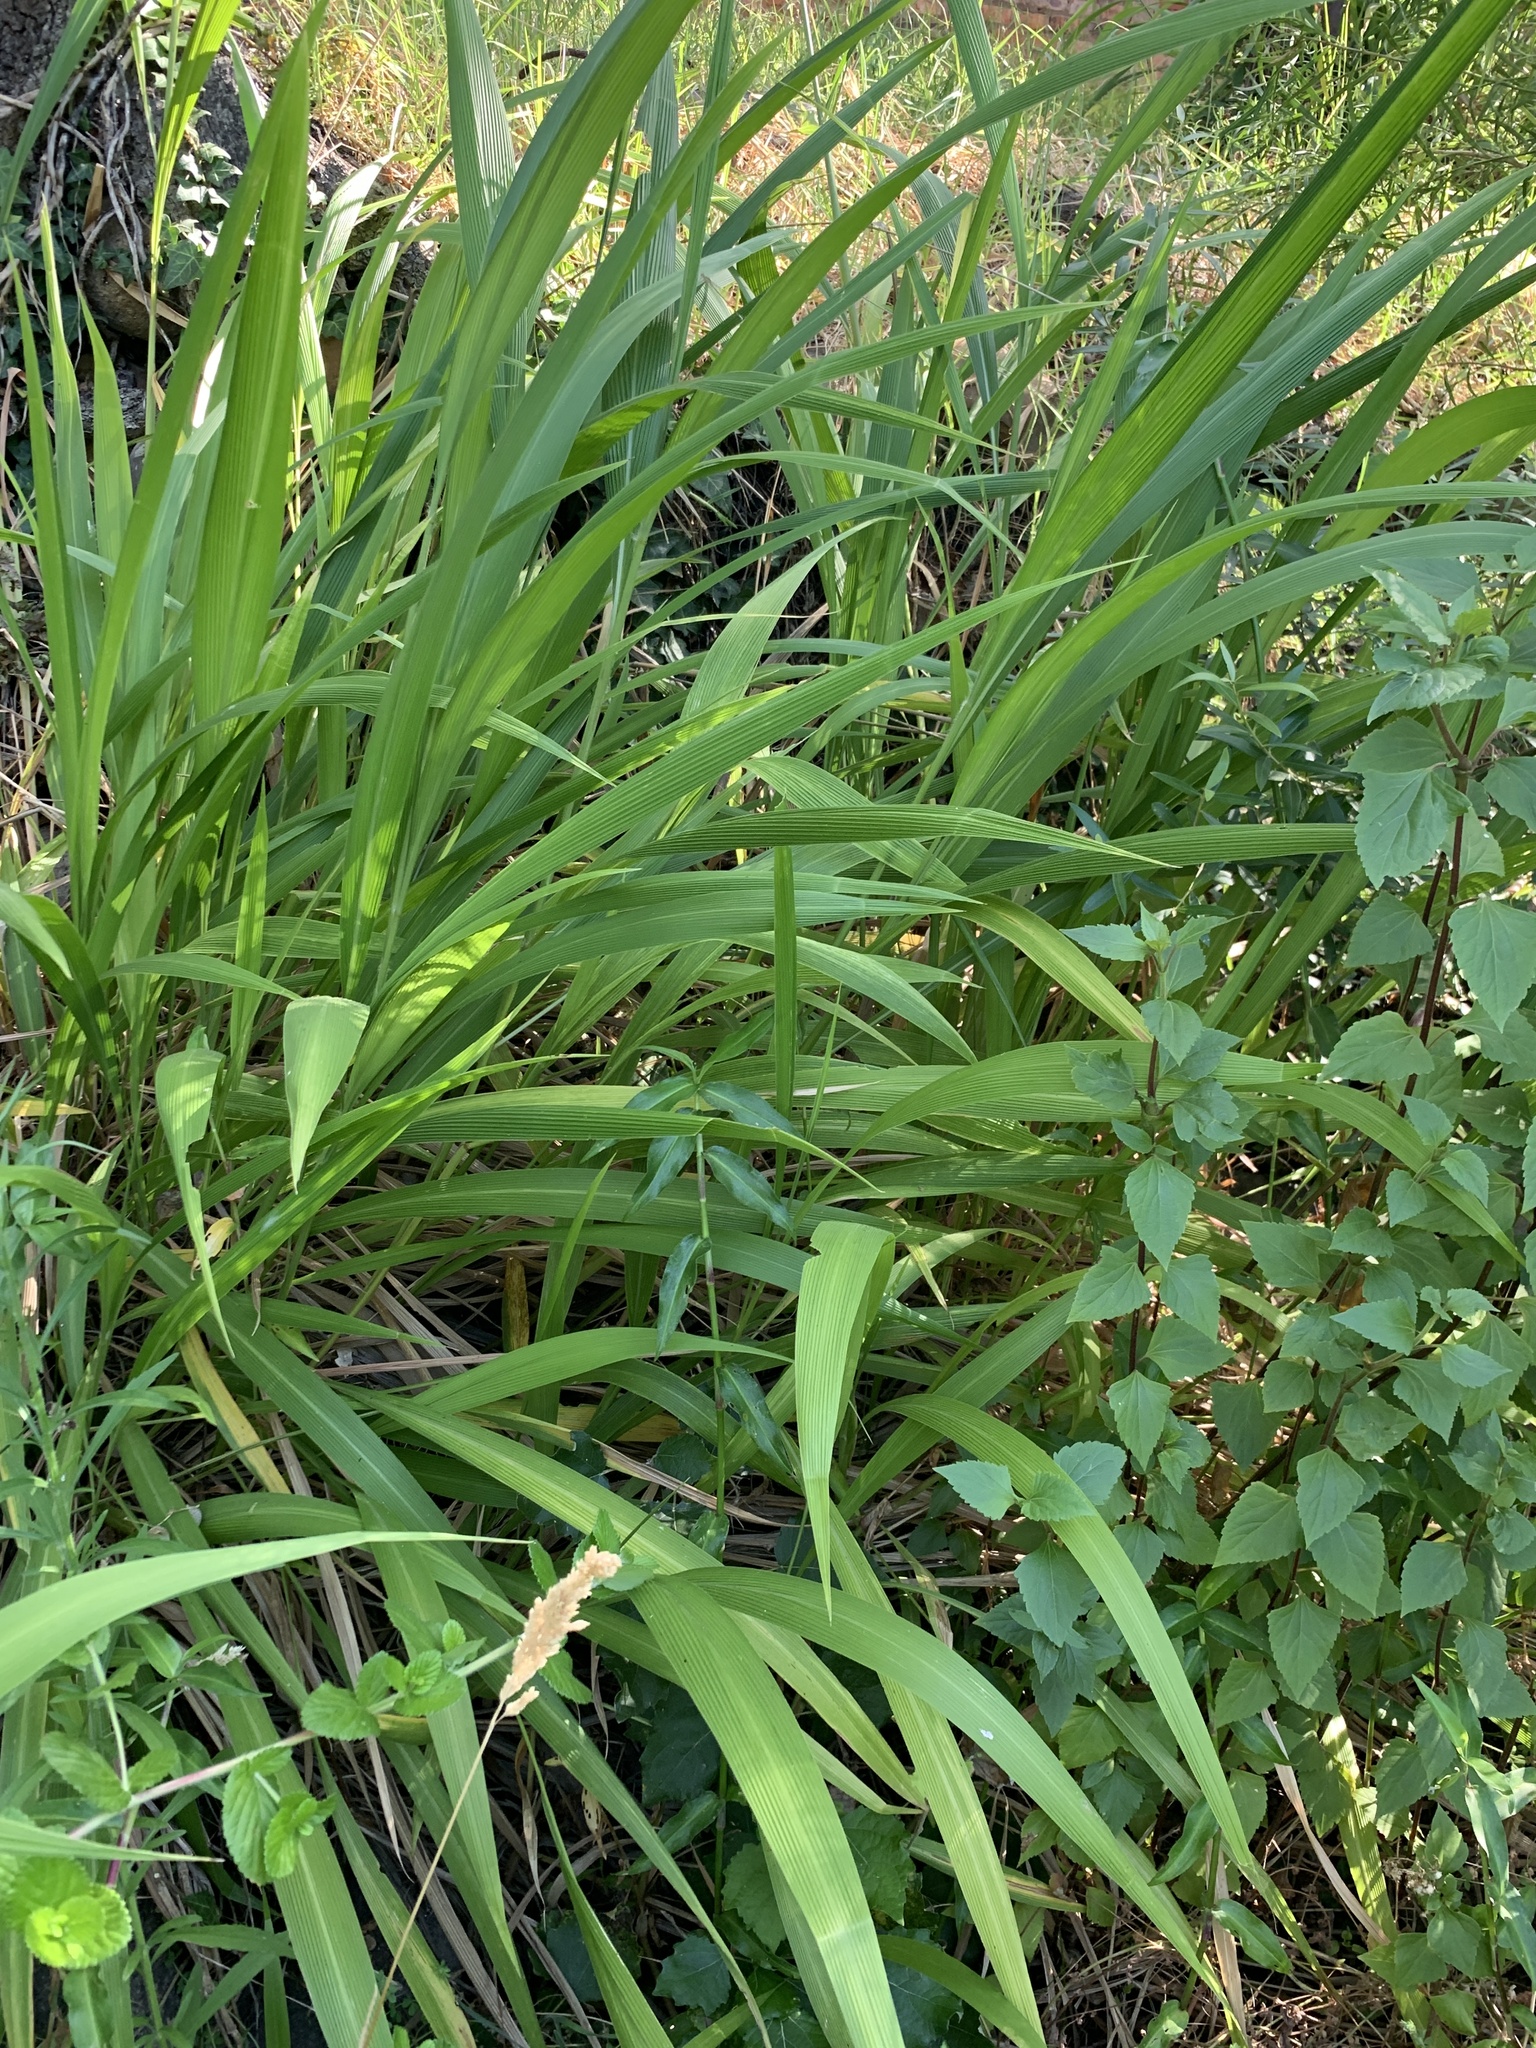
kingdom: Plantae
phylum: Tracheophyta
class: Liliopsida
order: Poales
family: Poaceae
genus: Setaria
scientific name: Setaria megaphylla
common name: Bigleaf bristlegrass
